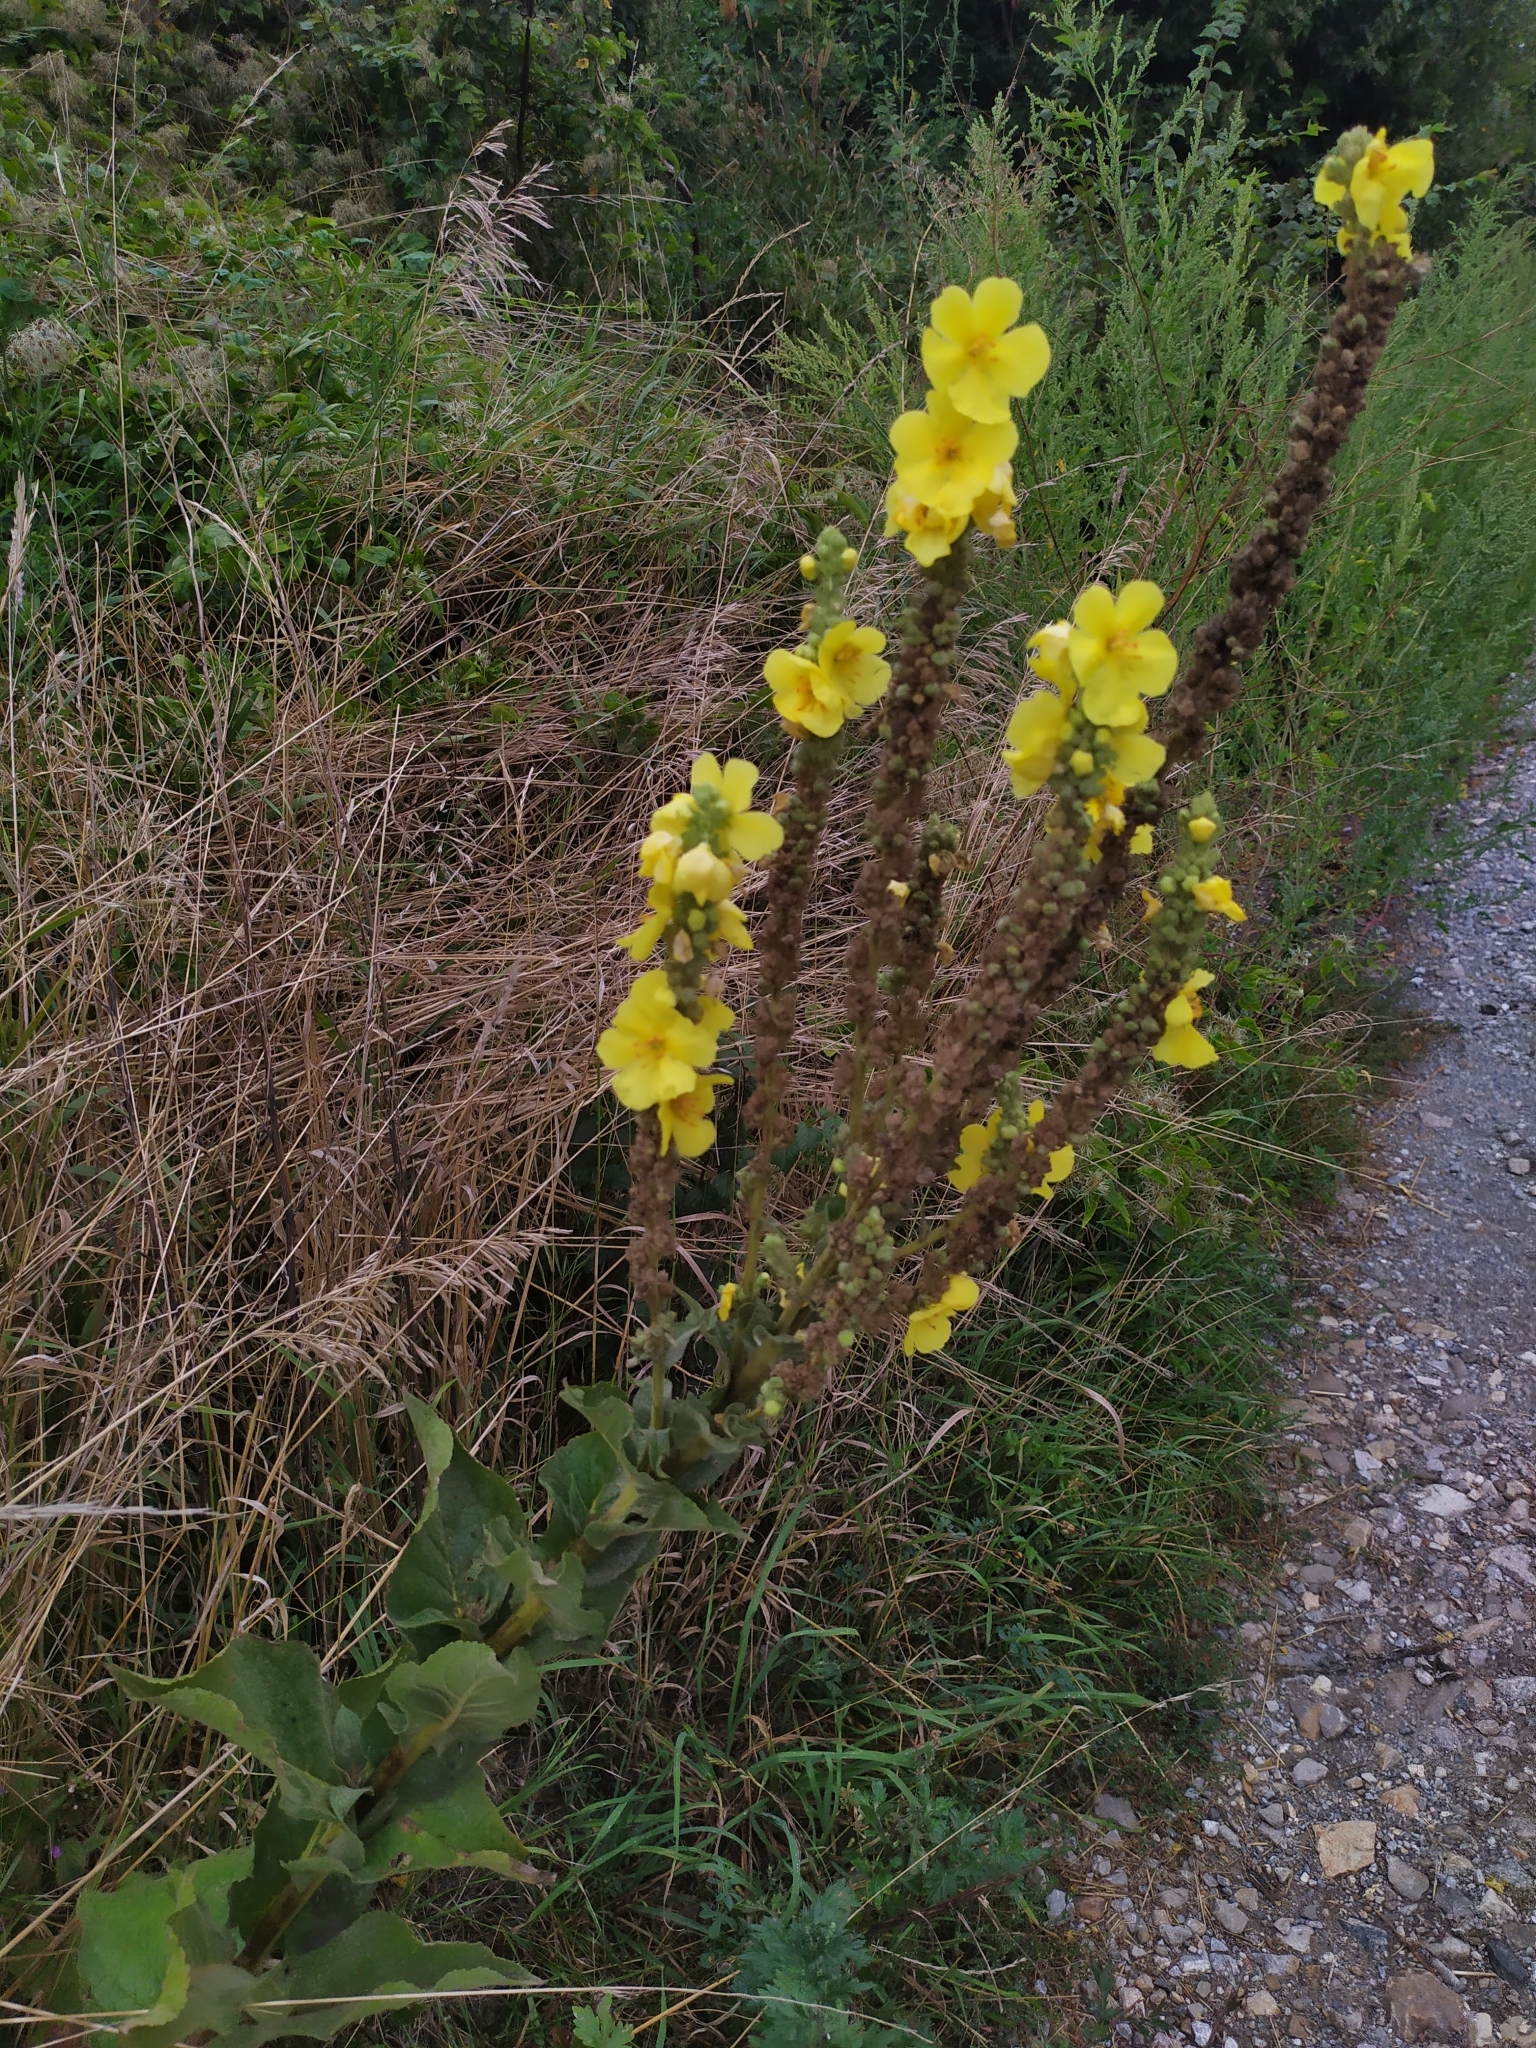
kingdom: Plantae
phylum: Tracheophyta
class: Magnoliopsida
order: Lamiales
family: Scrophulariaceae
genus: Verbascum
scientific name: Verbascum phlomoides
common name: Orange mullein
